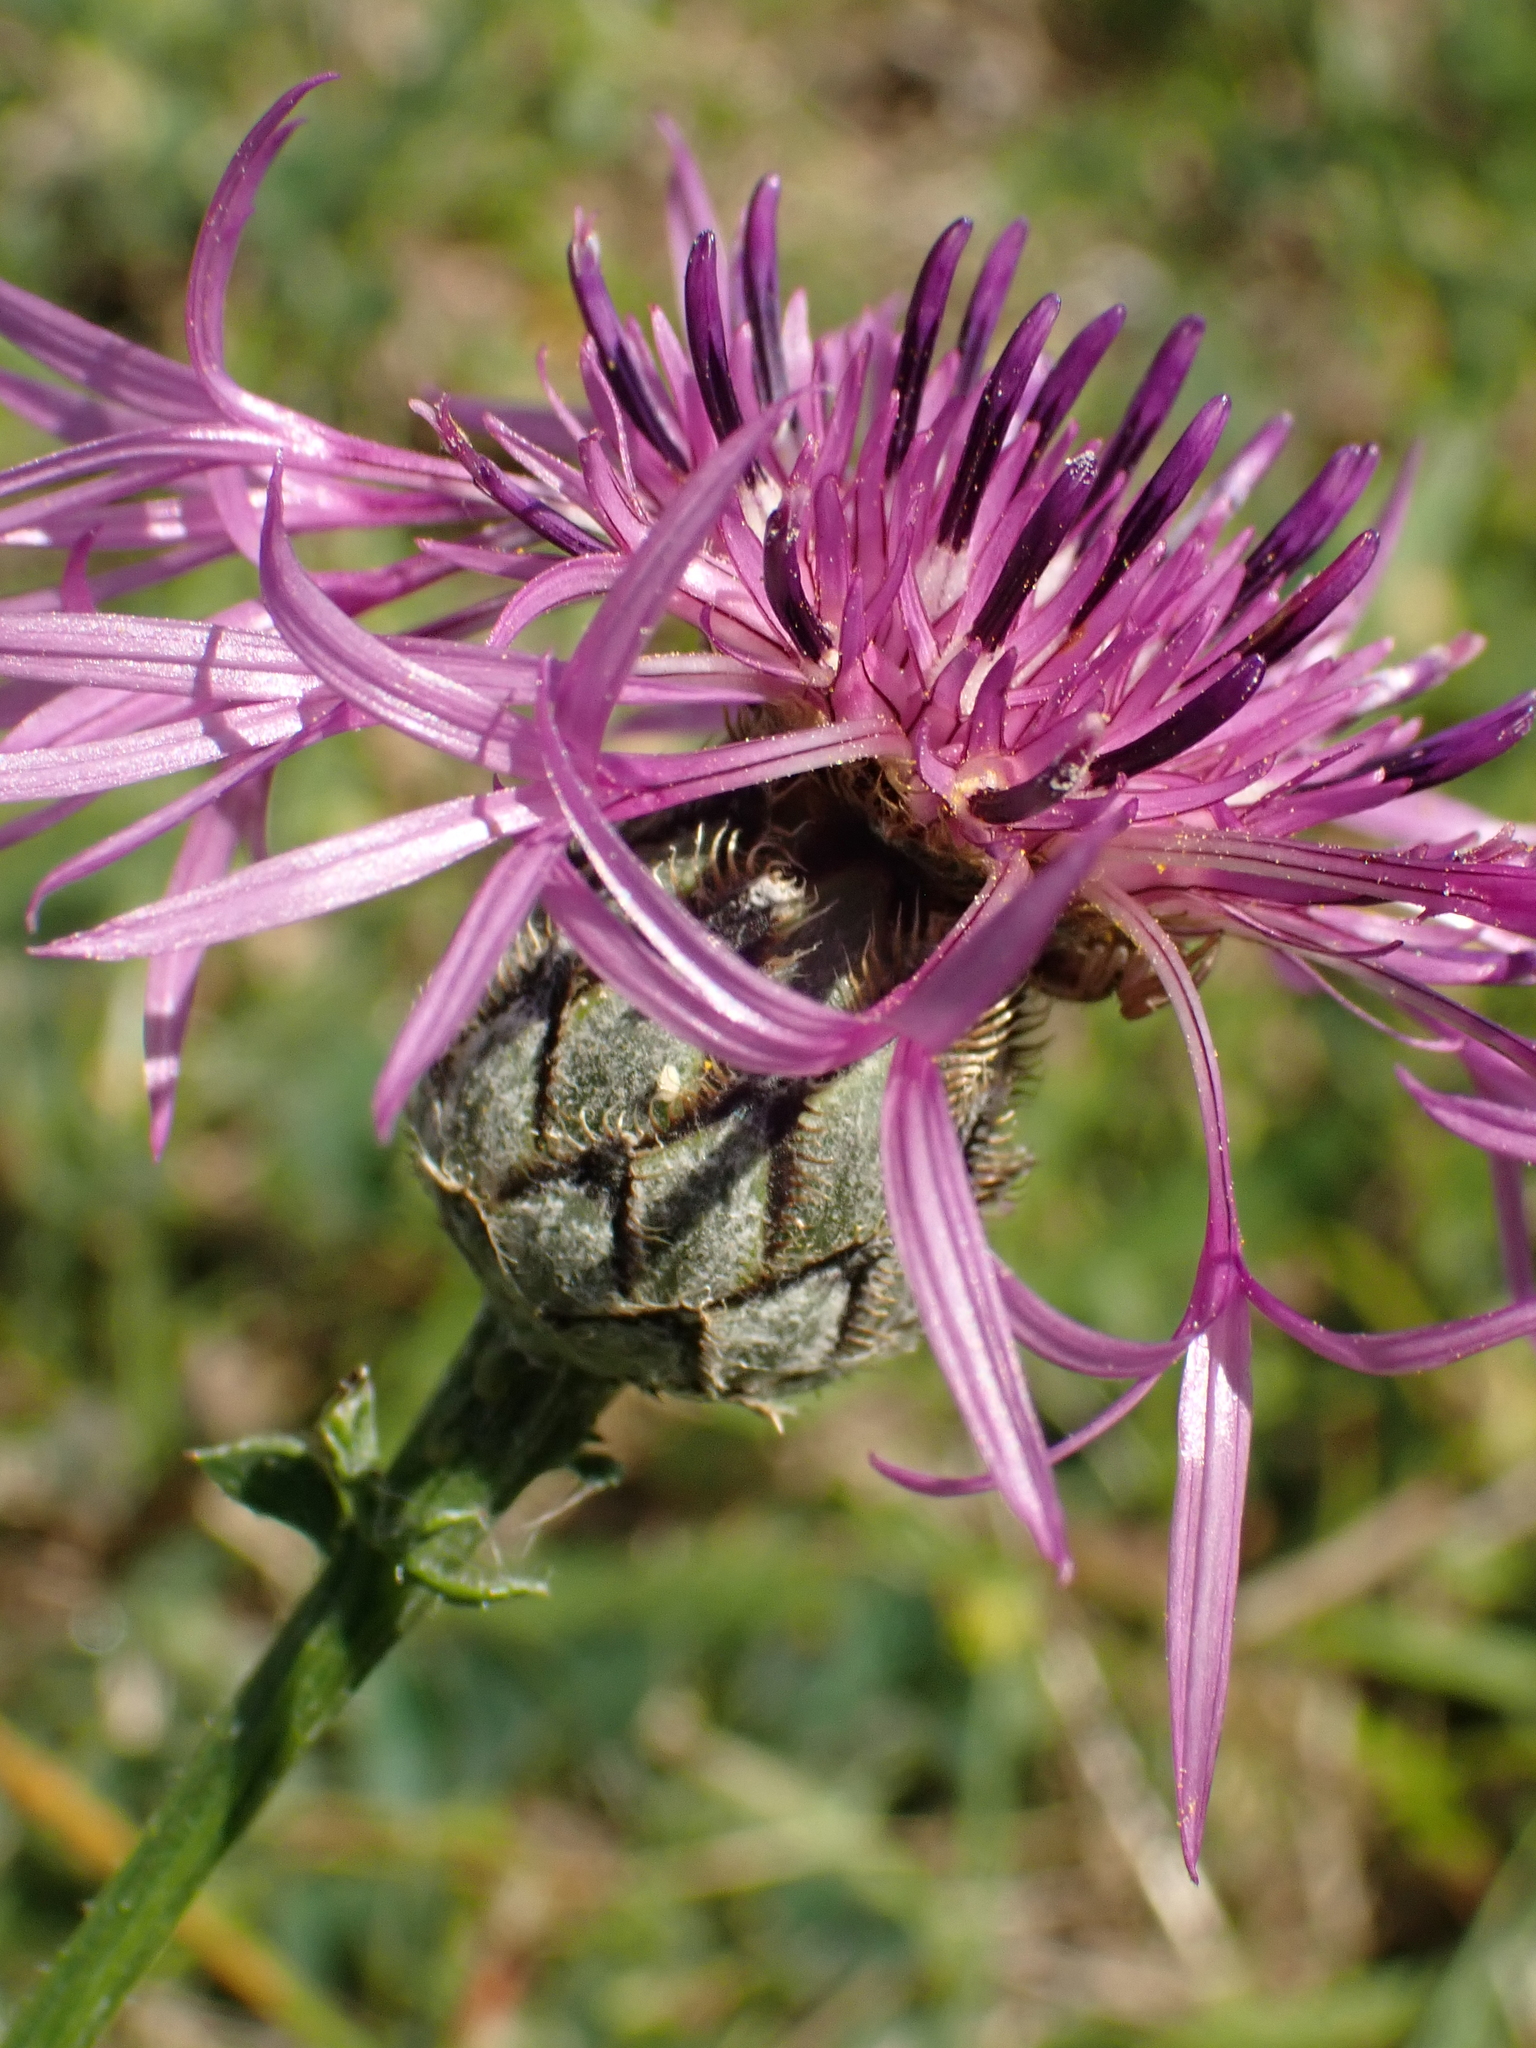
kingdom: Plantae
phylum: Tracheophyta
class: Magnoliopsida
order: Asterales
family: Asteraceae
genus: Centaurea
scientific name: Centaurea scabiosa
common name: Greater knapweed
